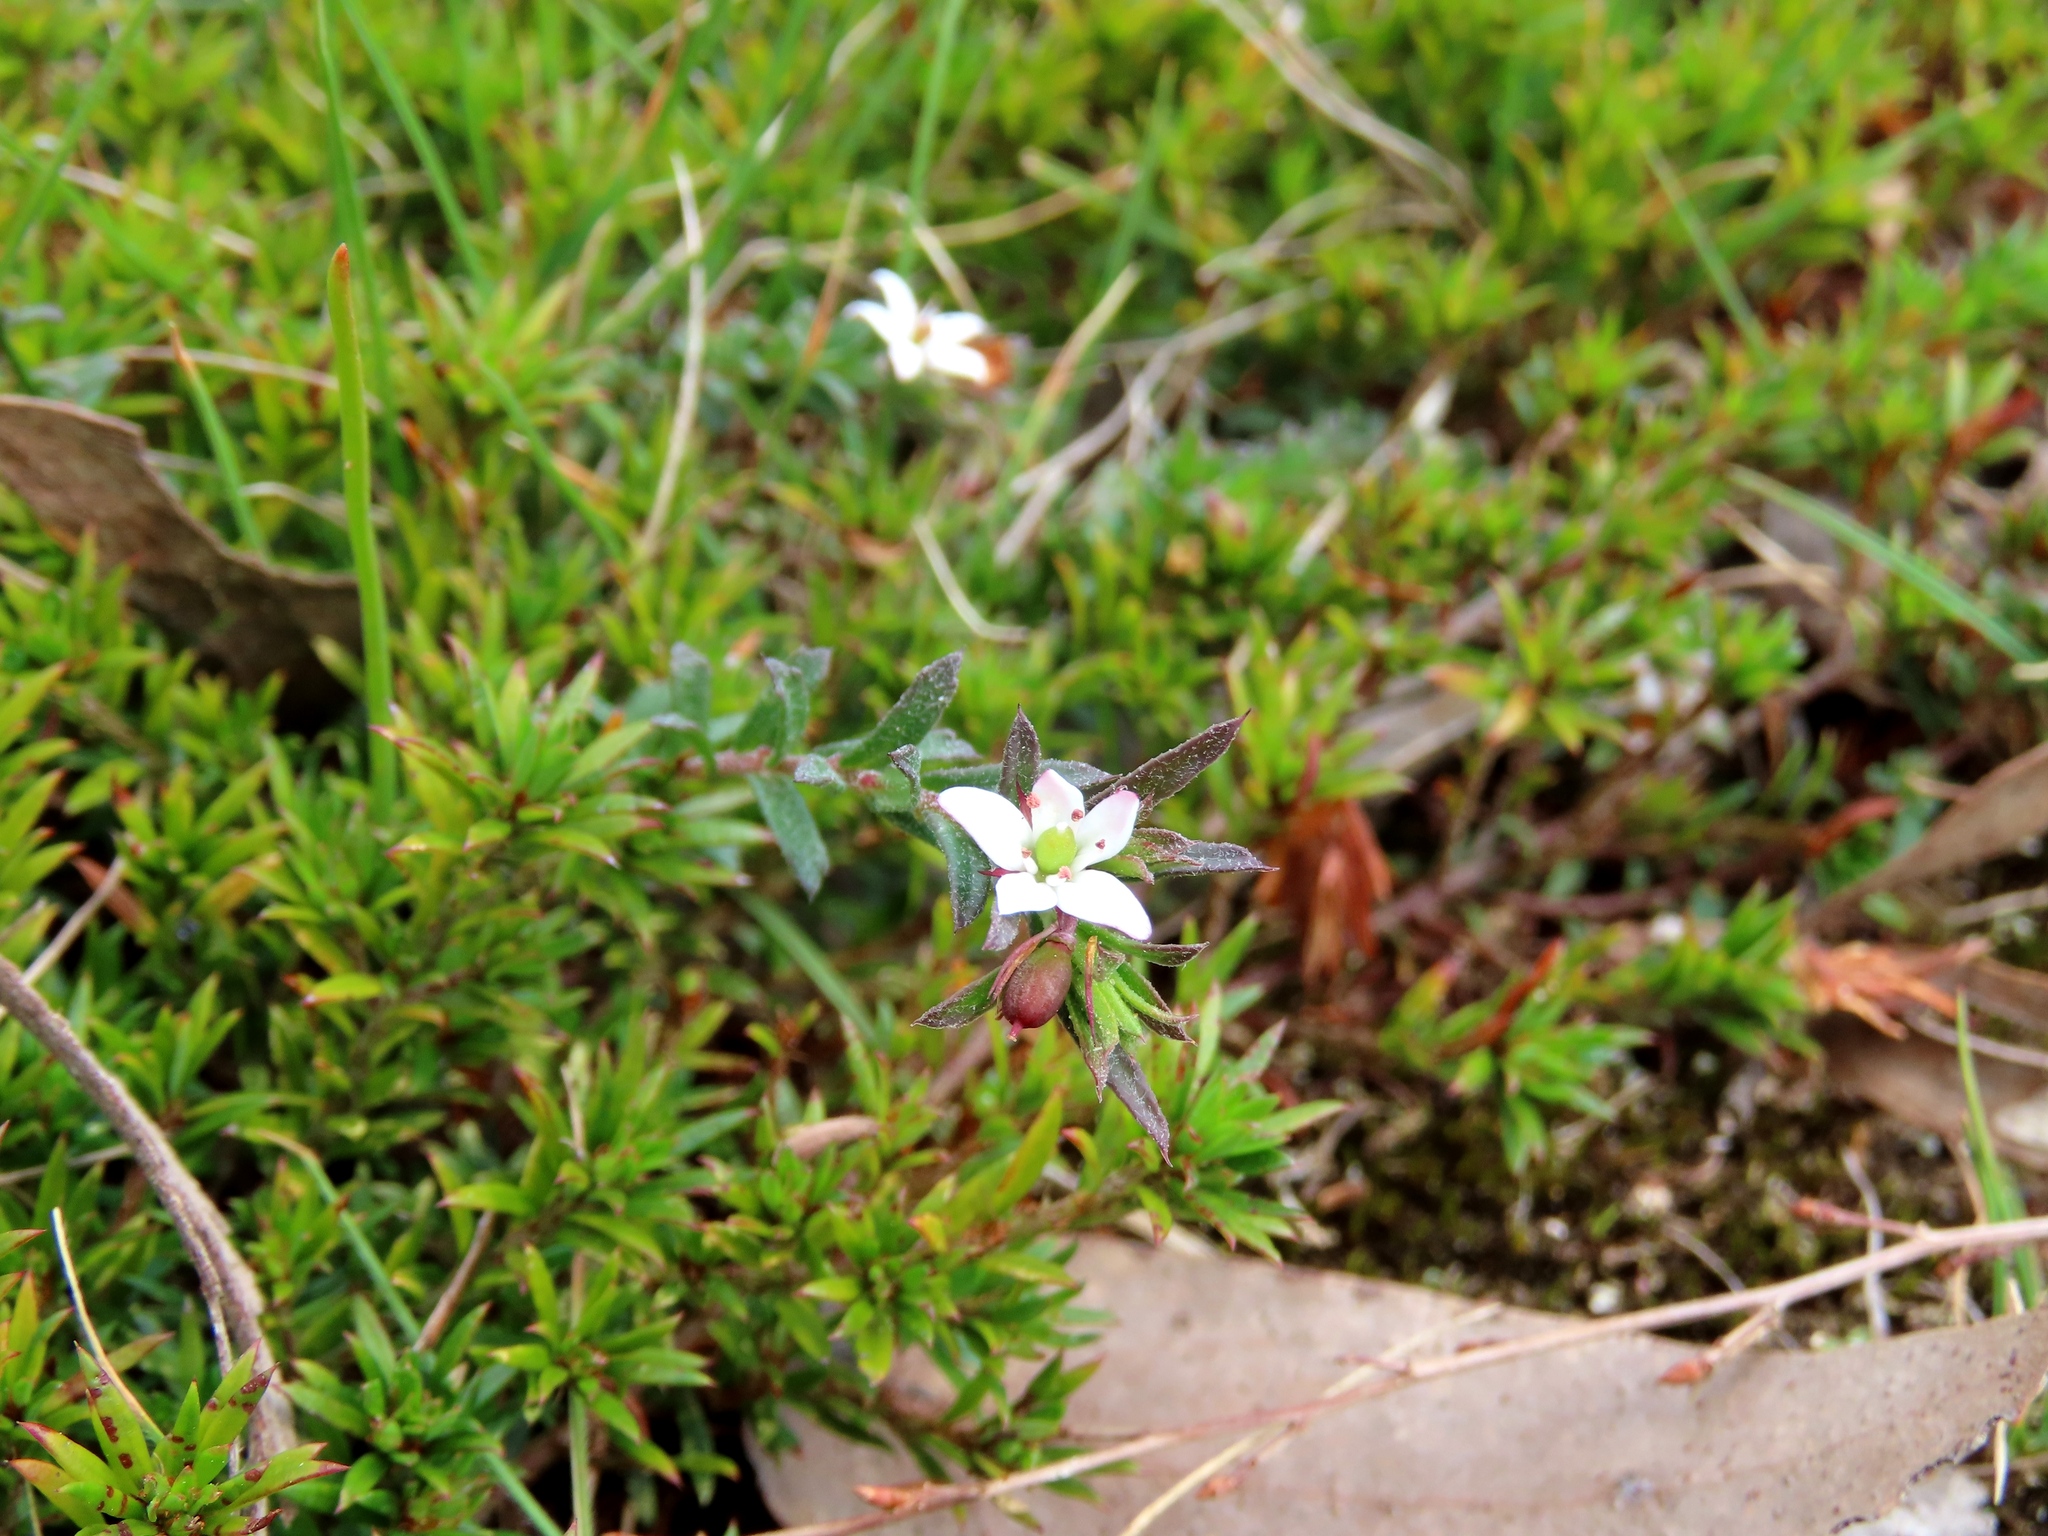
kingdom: Plantae
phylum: Tracheophyta
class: Magnoliopsida
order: Apiales
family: Pittosporaceae
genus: Rhytidosporum
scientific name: Rhytidosporum procumbens
